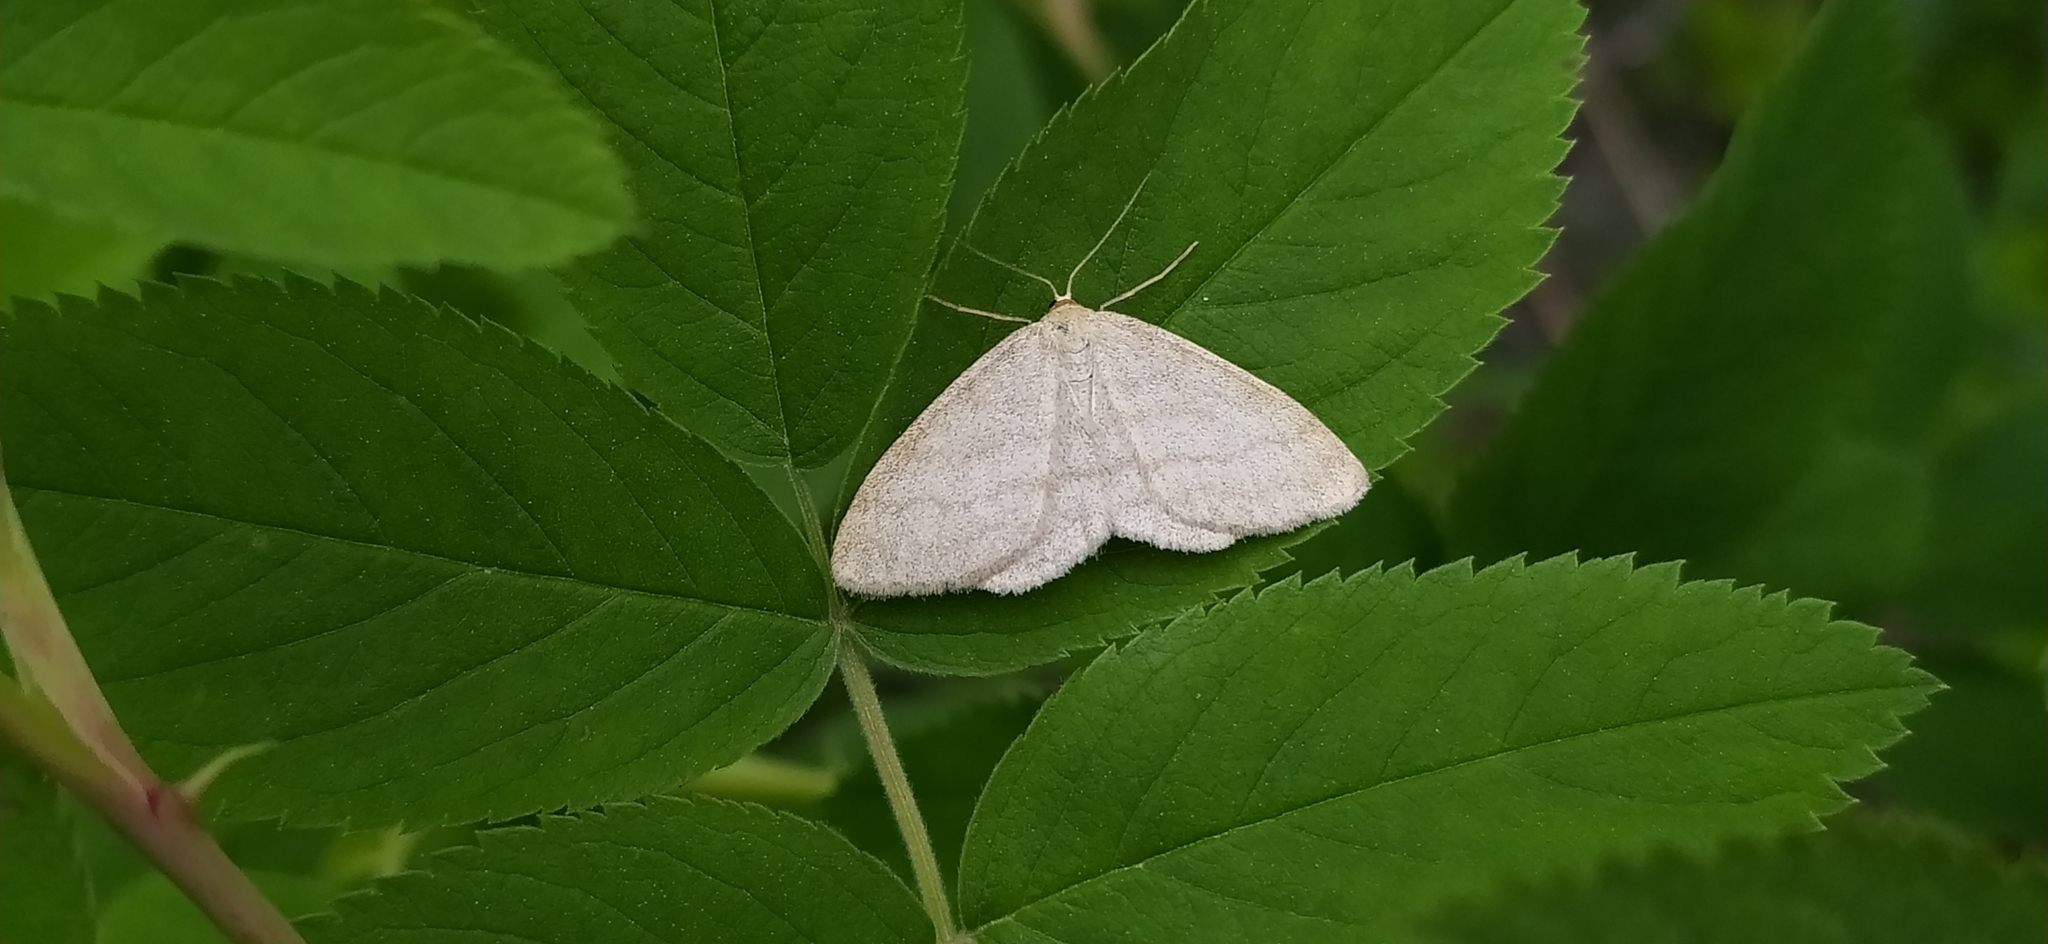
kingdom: Animalia
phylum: Arthropoda
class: Insecta
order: Lepidoptera
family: Geometridae
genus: Scopula
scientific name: Scopula ternata
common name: Smoky wave
